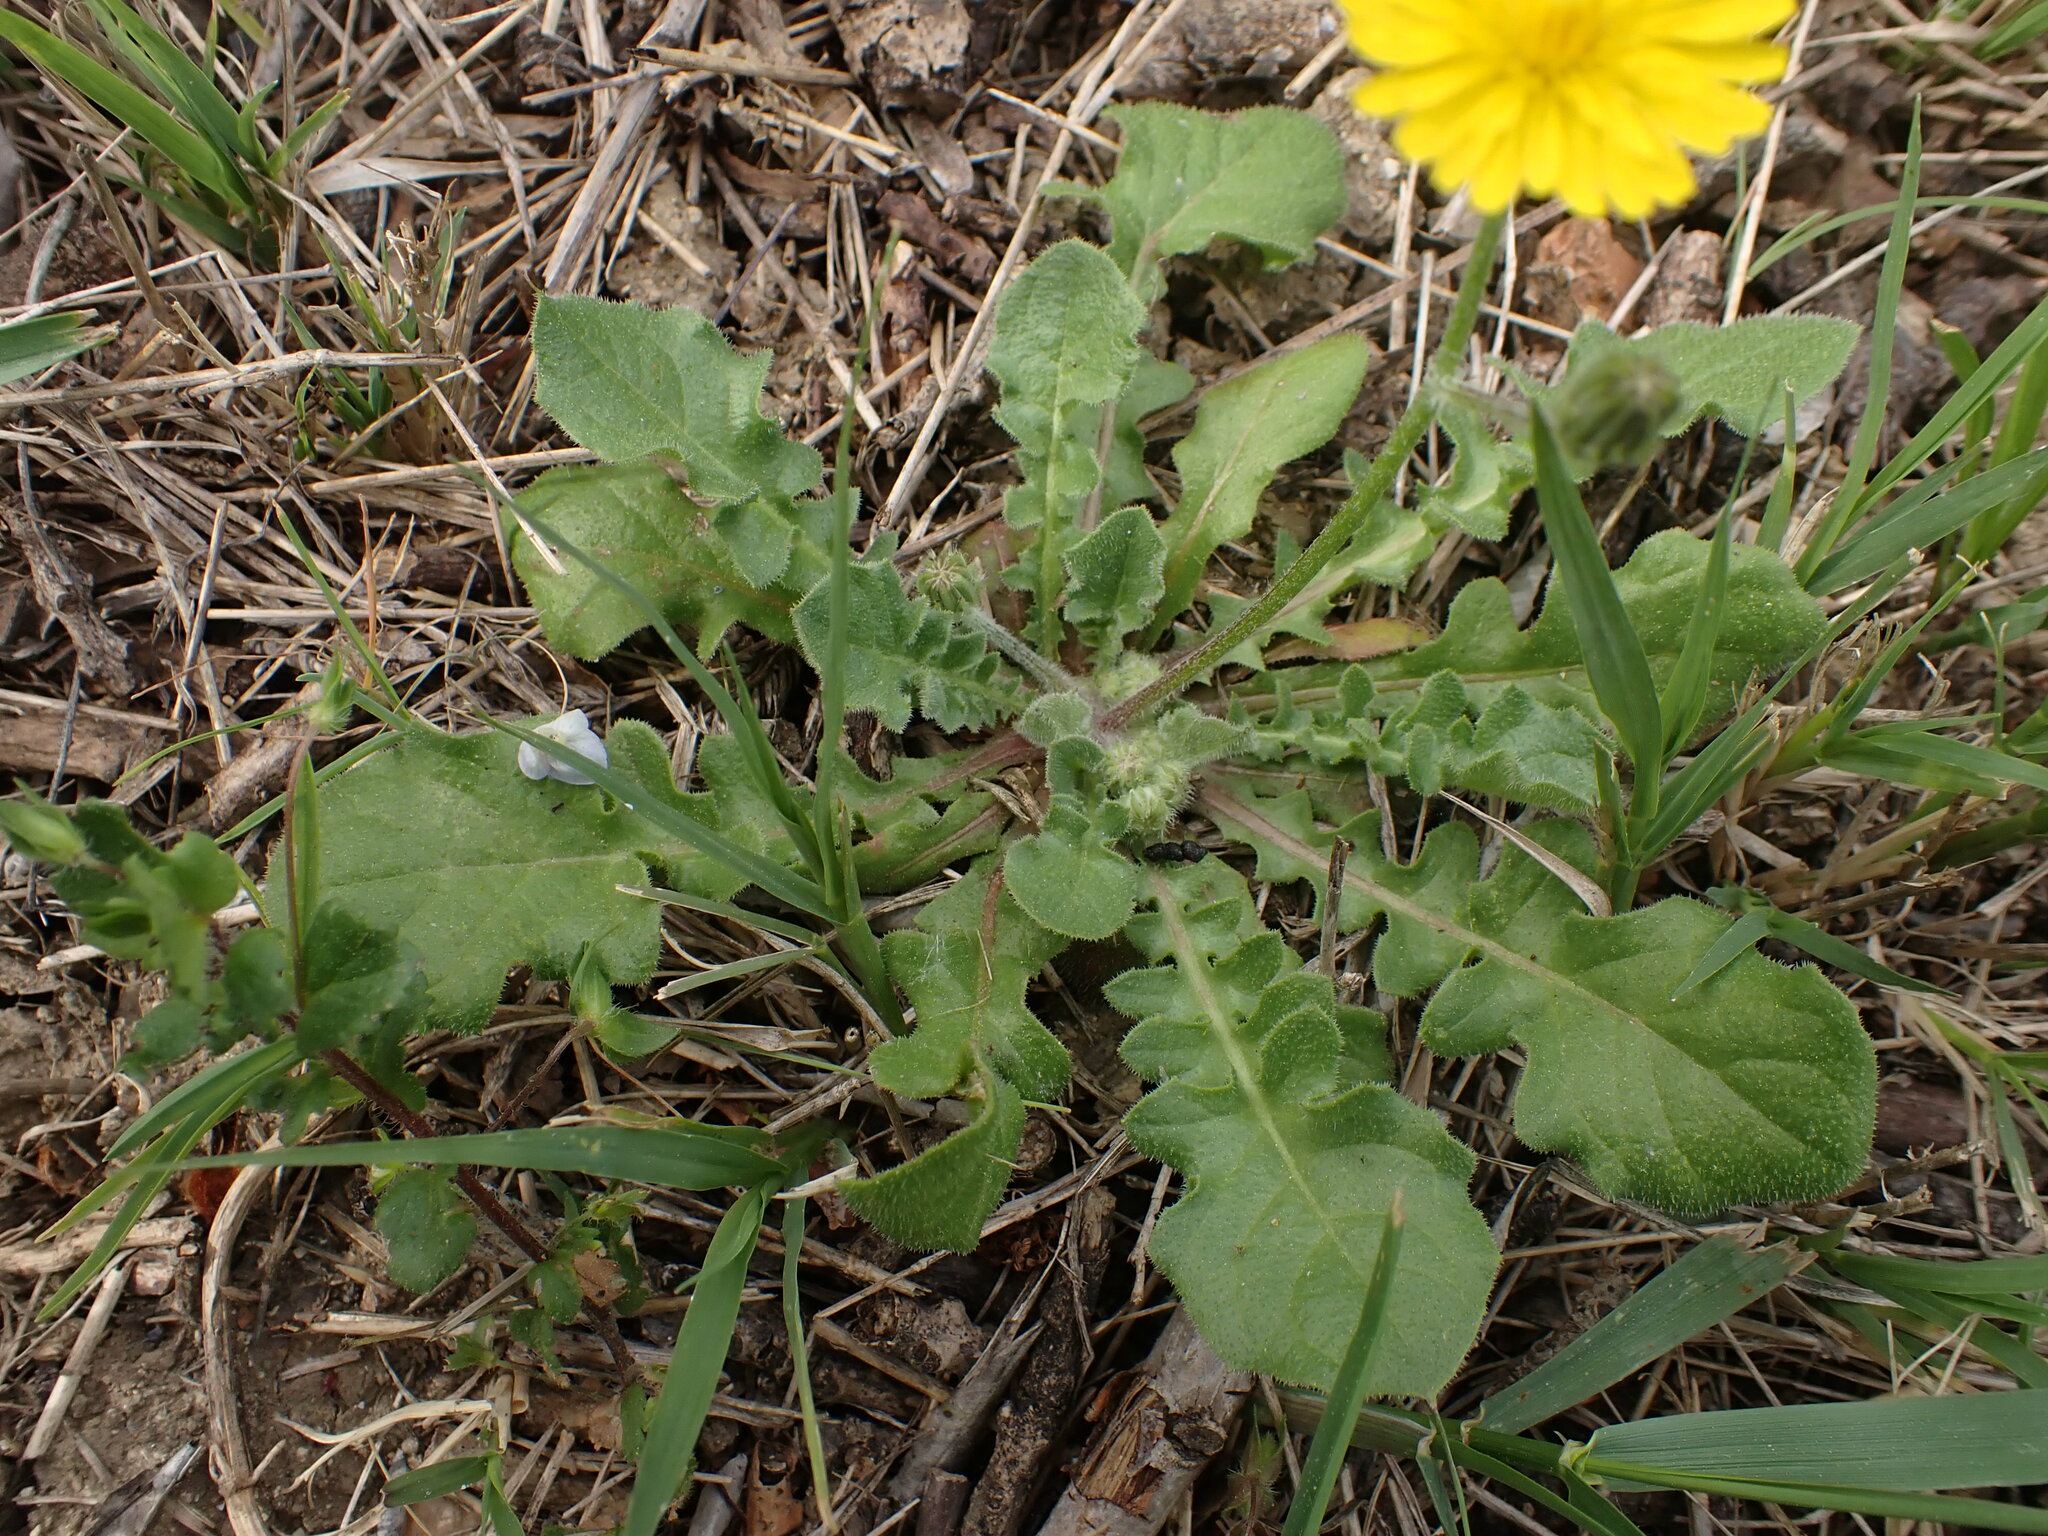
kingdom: Plantae
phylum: Tracheophyta
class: Magnoliopsida
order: Asterales
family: Asteraceae
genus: Crepis
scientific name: Crepis sancta
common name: Hawk's-beard
